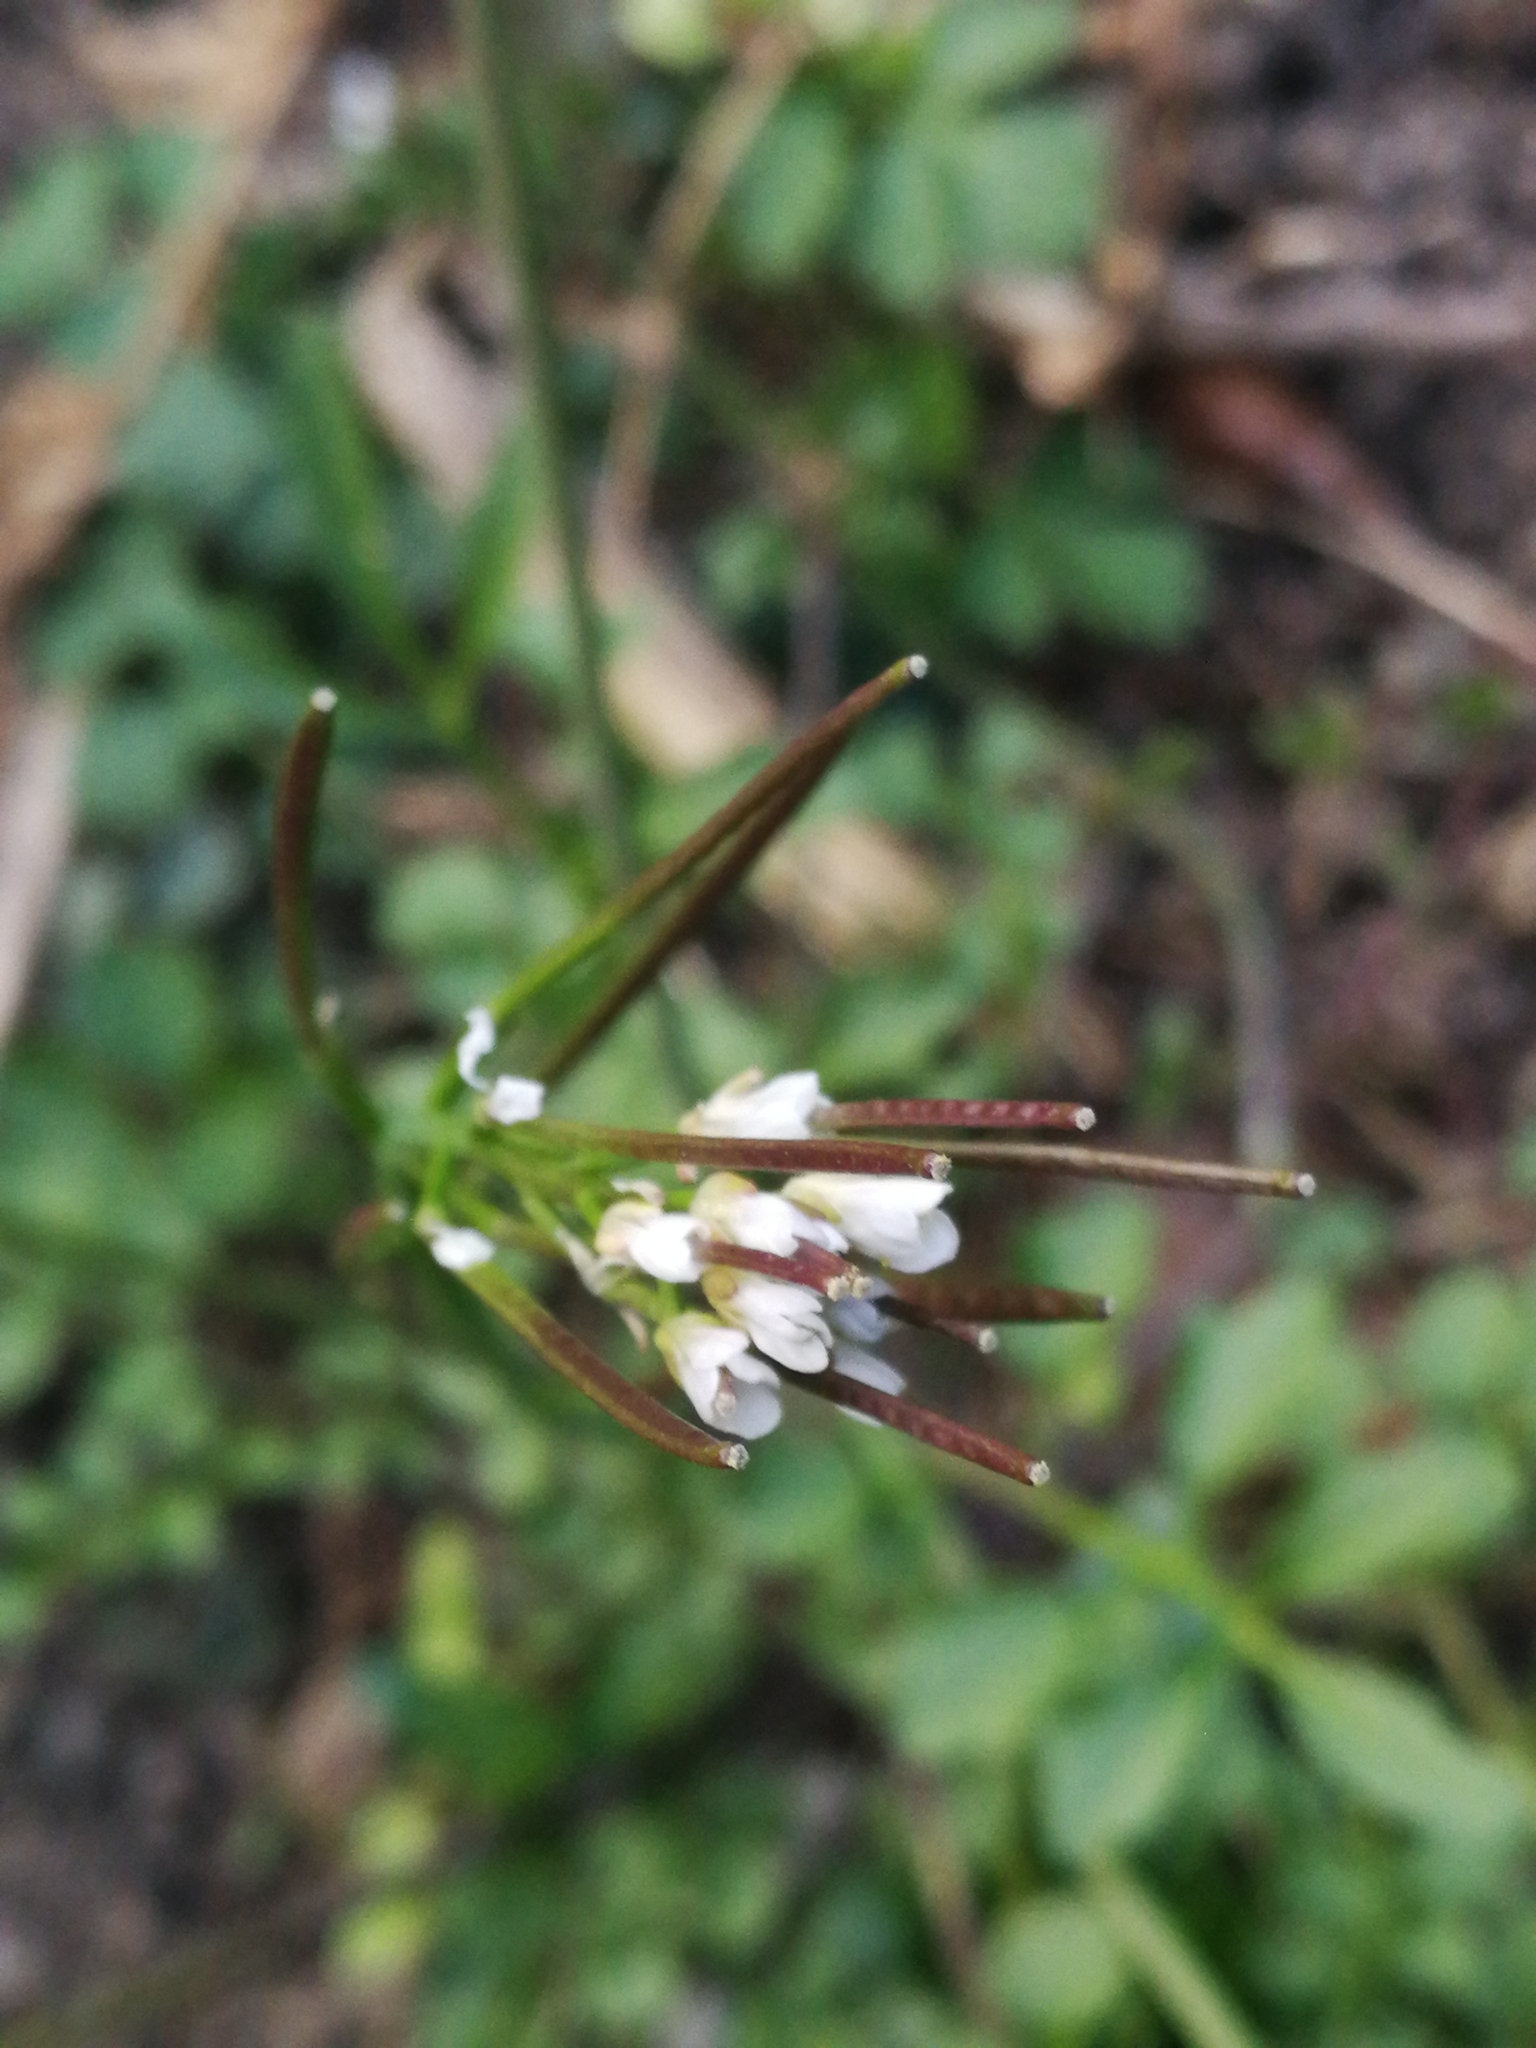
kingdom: Plantae
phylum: Tracheophyta
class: Magnoliopsida
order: Brassicales
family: Brassicaceae
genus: Cardamine
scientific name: Cardamine hirsuta
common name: Hairy bittercress
